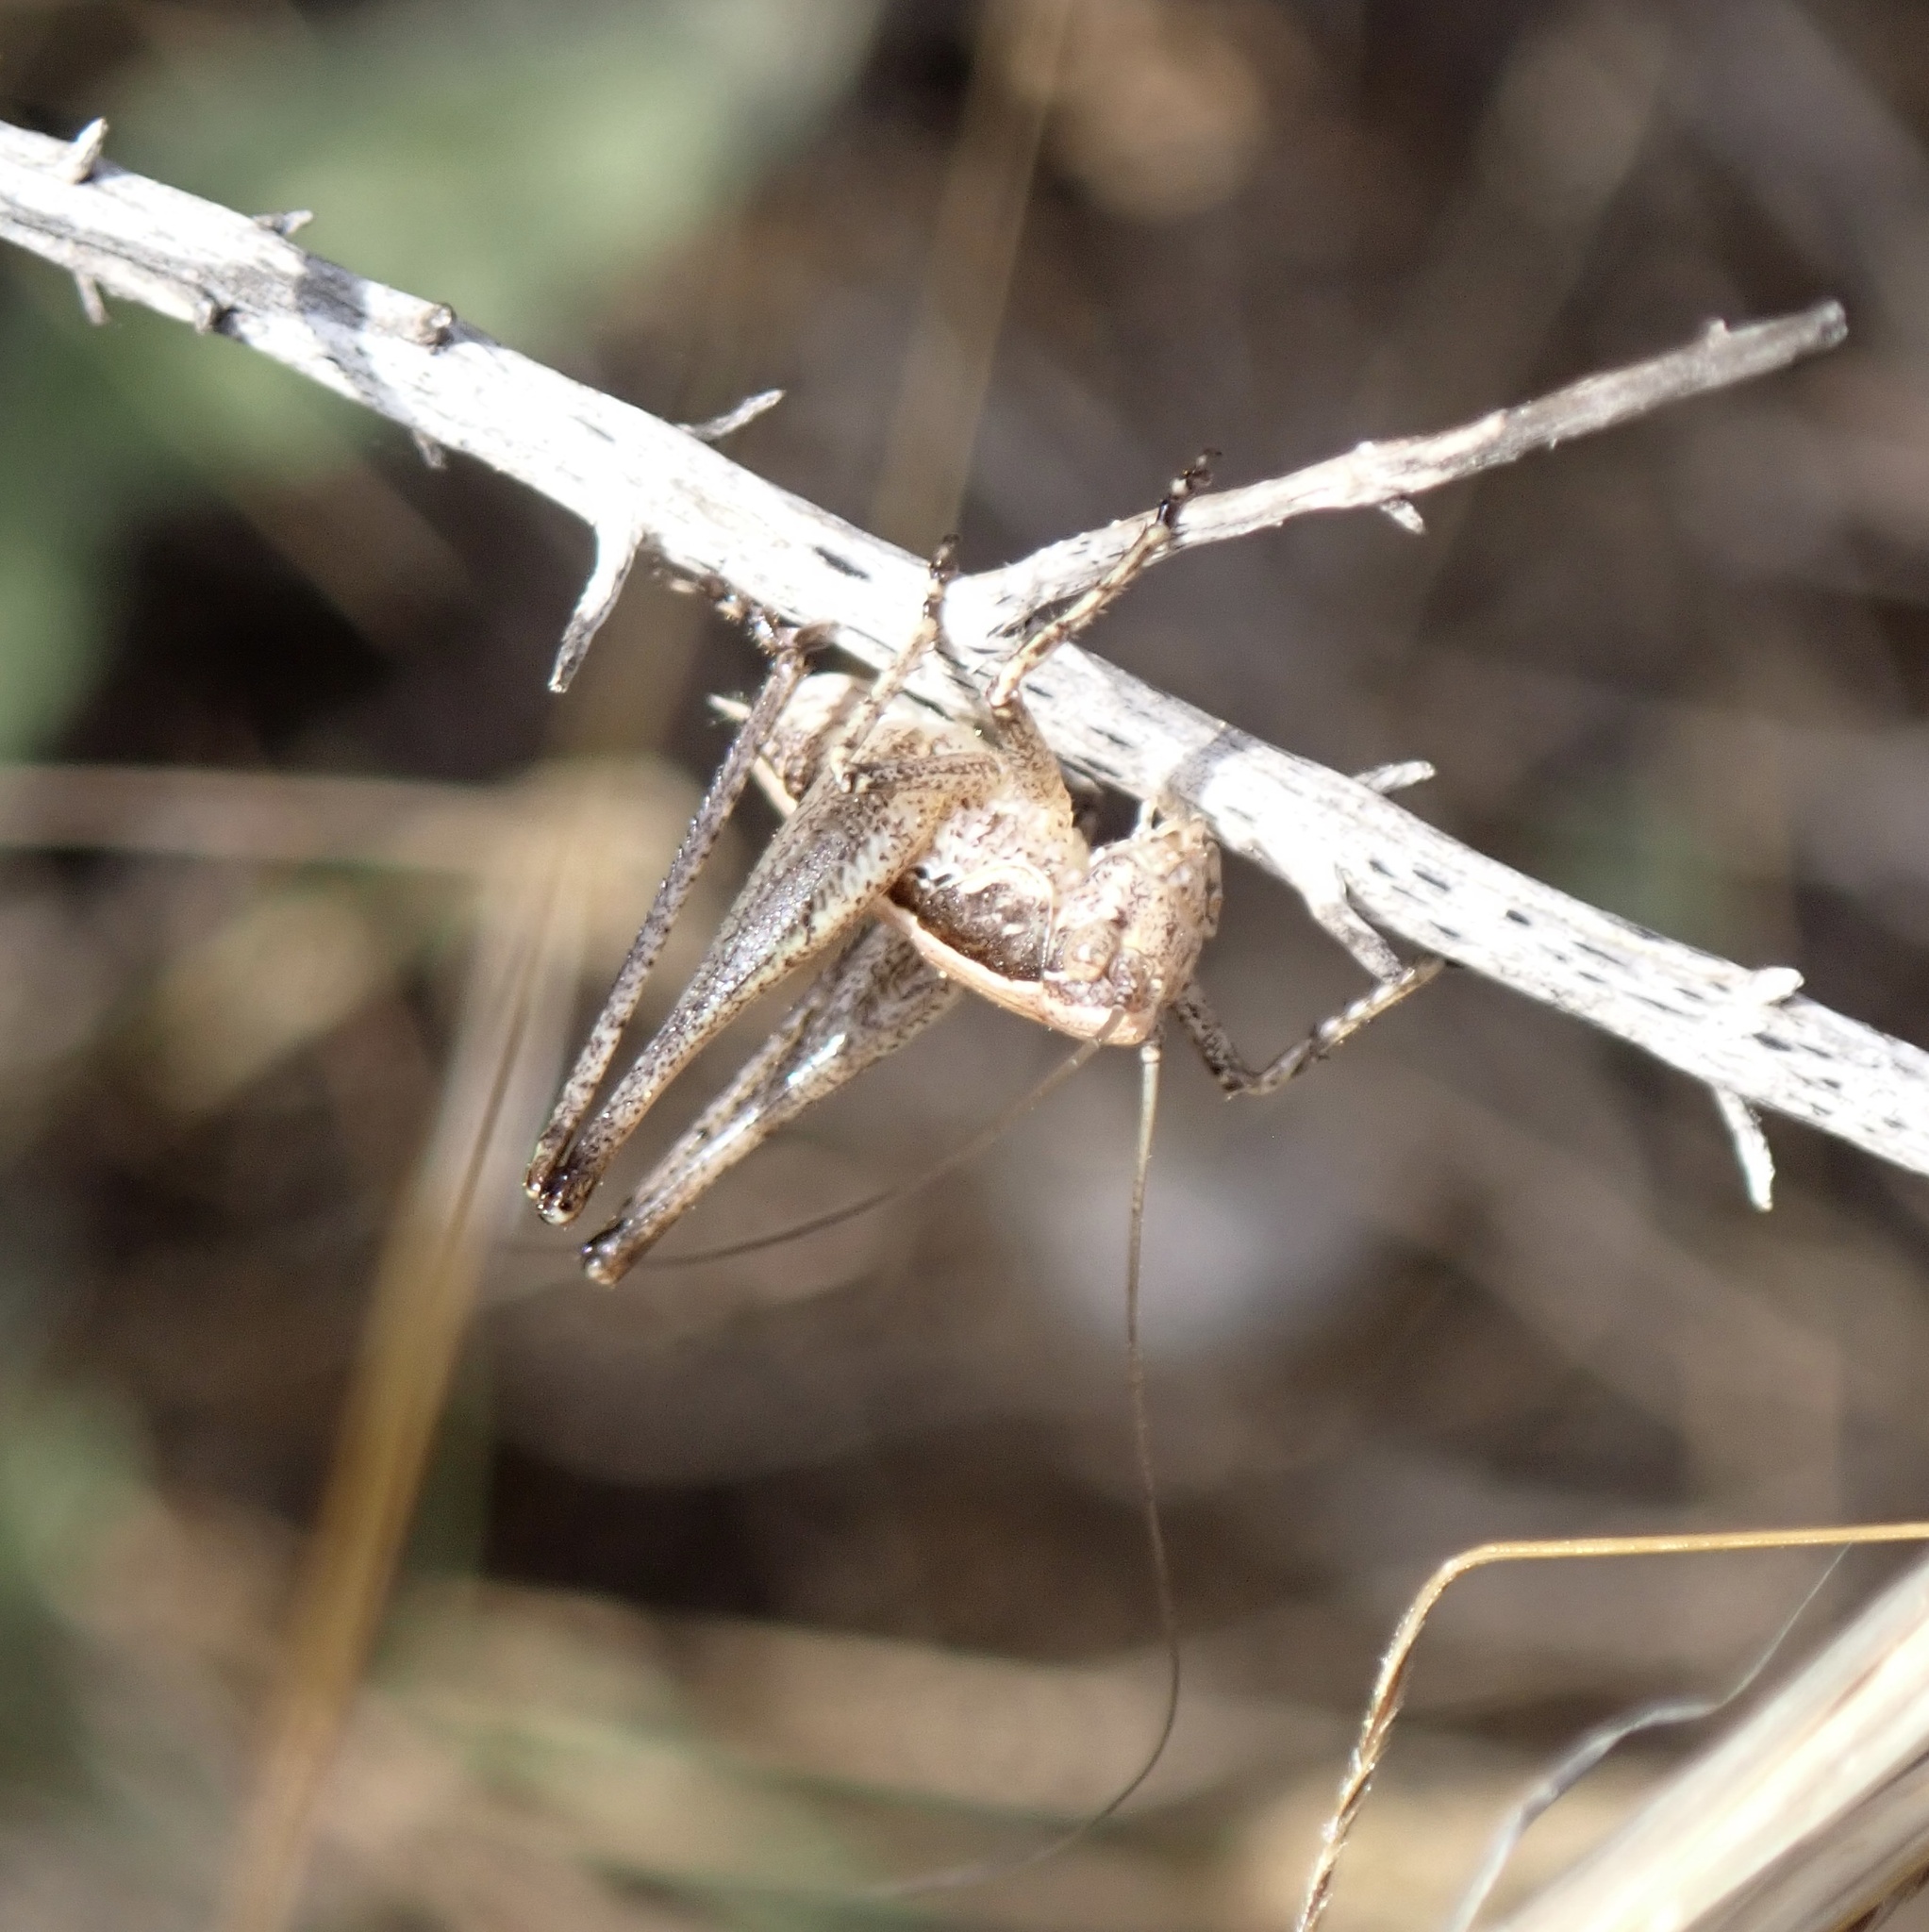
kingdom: Animalia
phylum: Arthropoda
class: Insecta
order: Orthoptera
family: Tettigoniidae
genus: Rhacocleis
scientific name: Rhacocleis germanica
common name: Mediterranean bush-cricket
